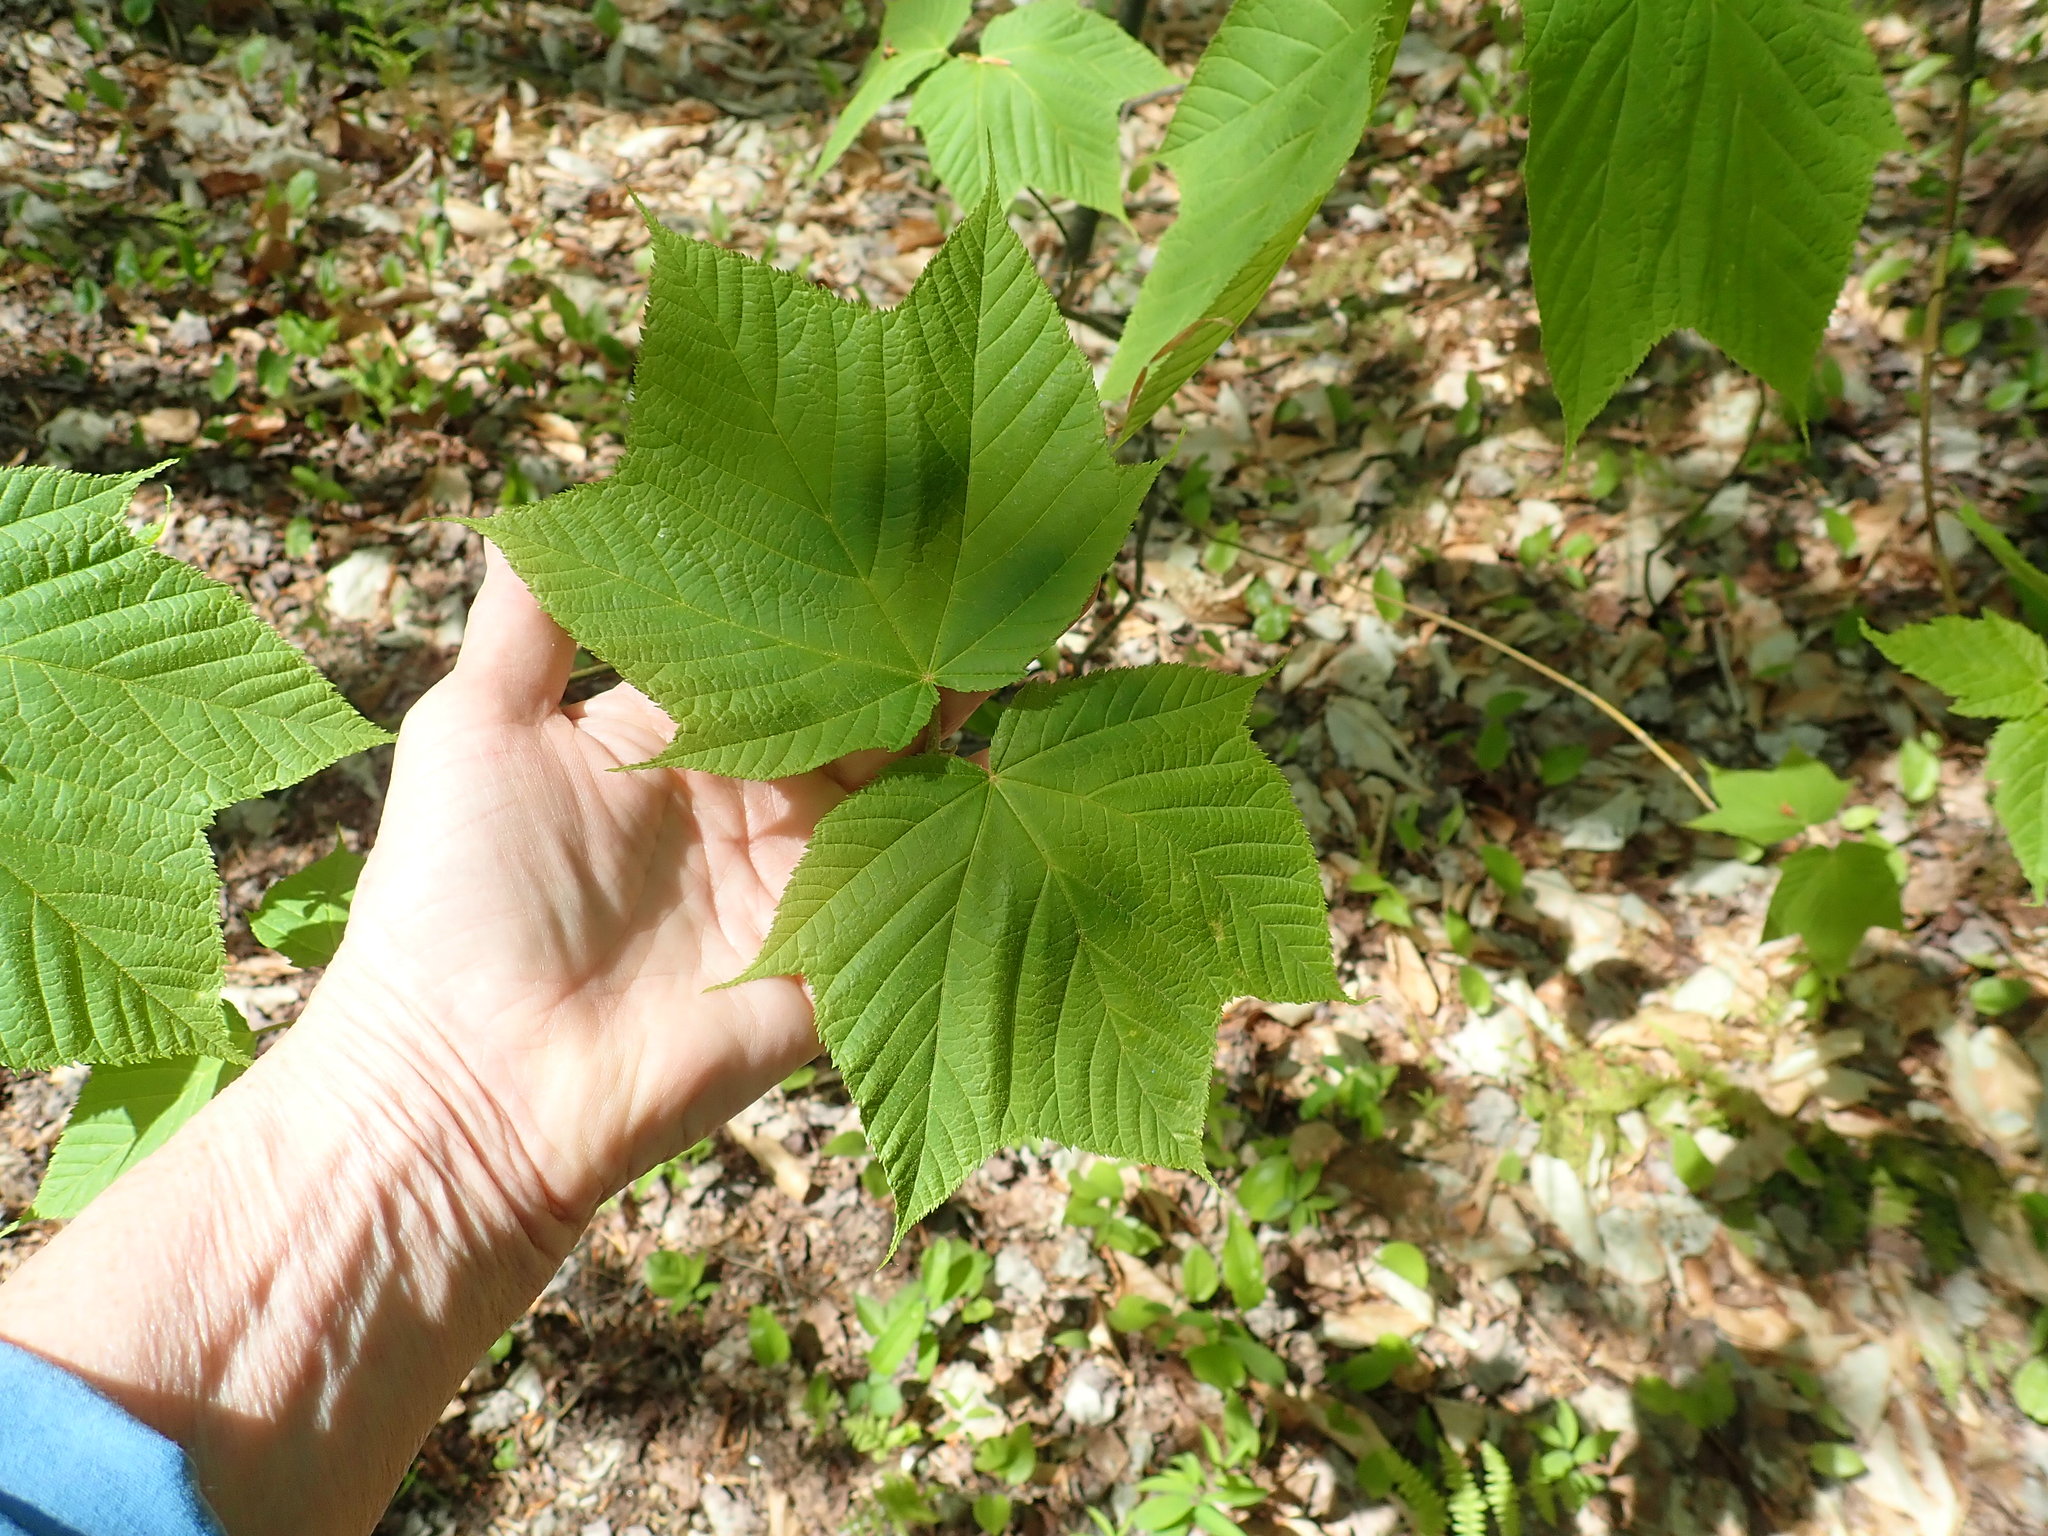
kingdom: Plantae
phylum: Tracheophyta
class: Magnoliopsida
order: Sapindales
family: Sapindaceae
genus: Acer
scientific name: Acer pensylvanicum
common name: Moosewood
